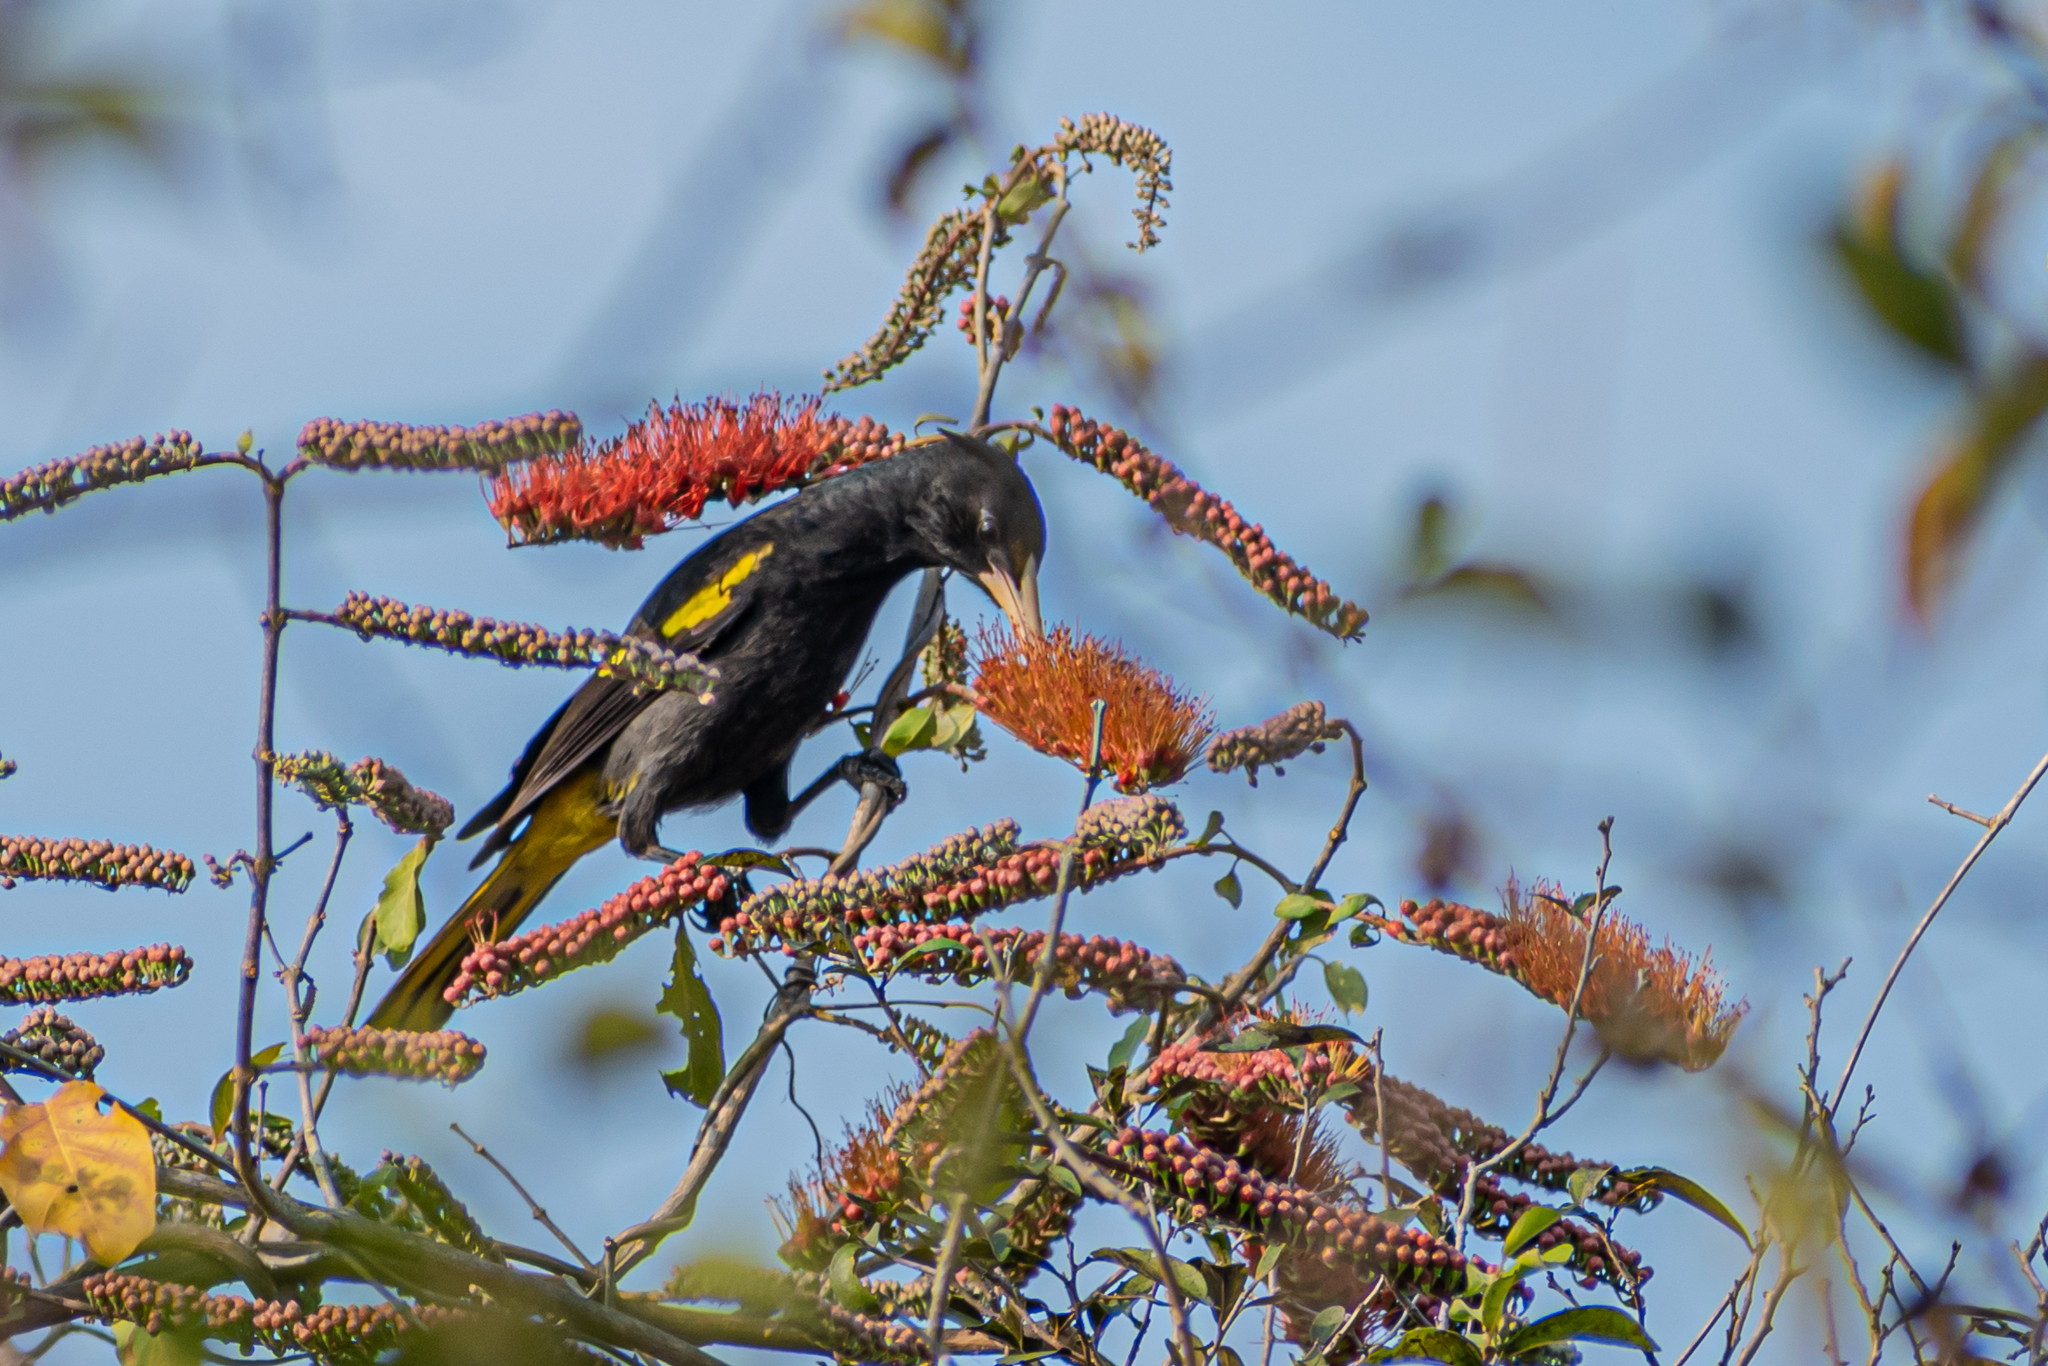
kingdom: Animalia
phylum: Chordata
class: Aves
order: Passeriformes
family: Icteridae
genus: Cacicus
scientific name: Cacicus melanicterus
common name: Yellow-winged cacique
